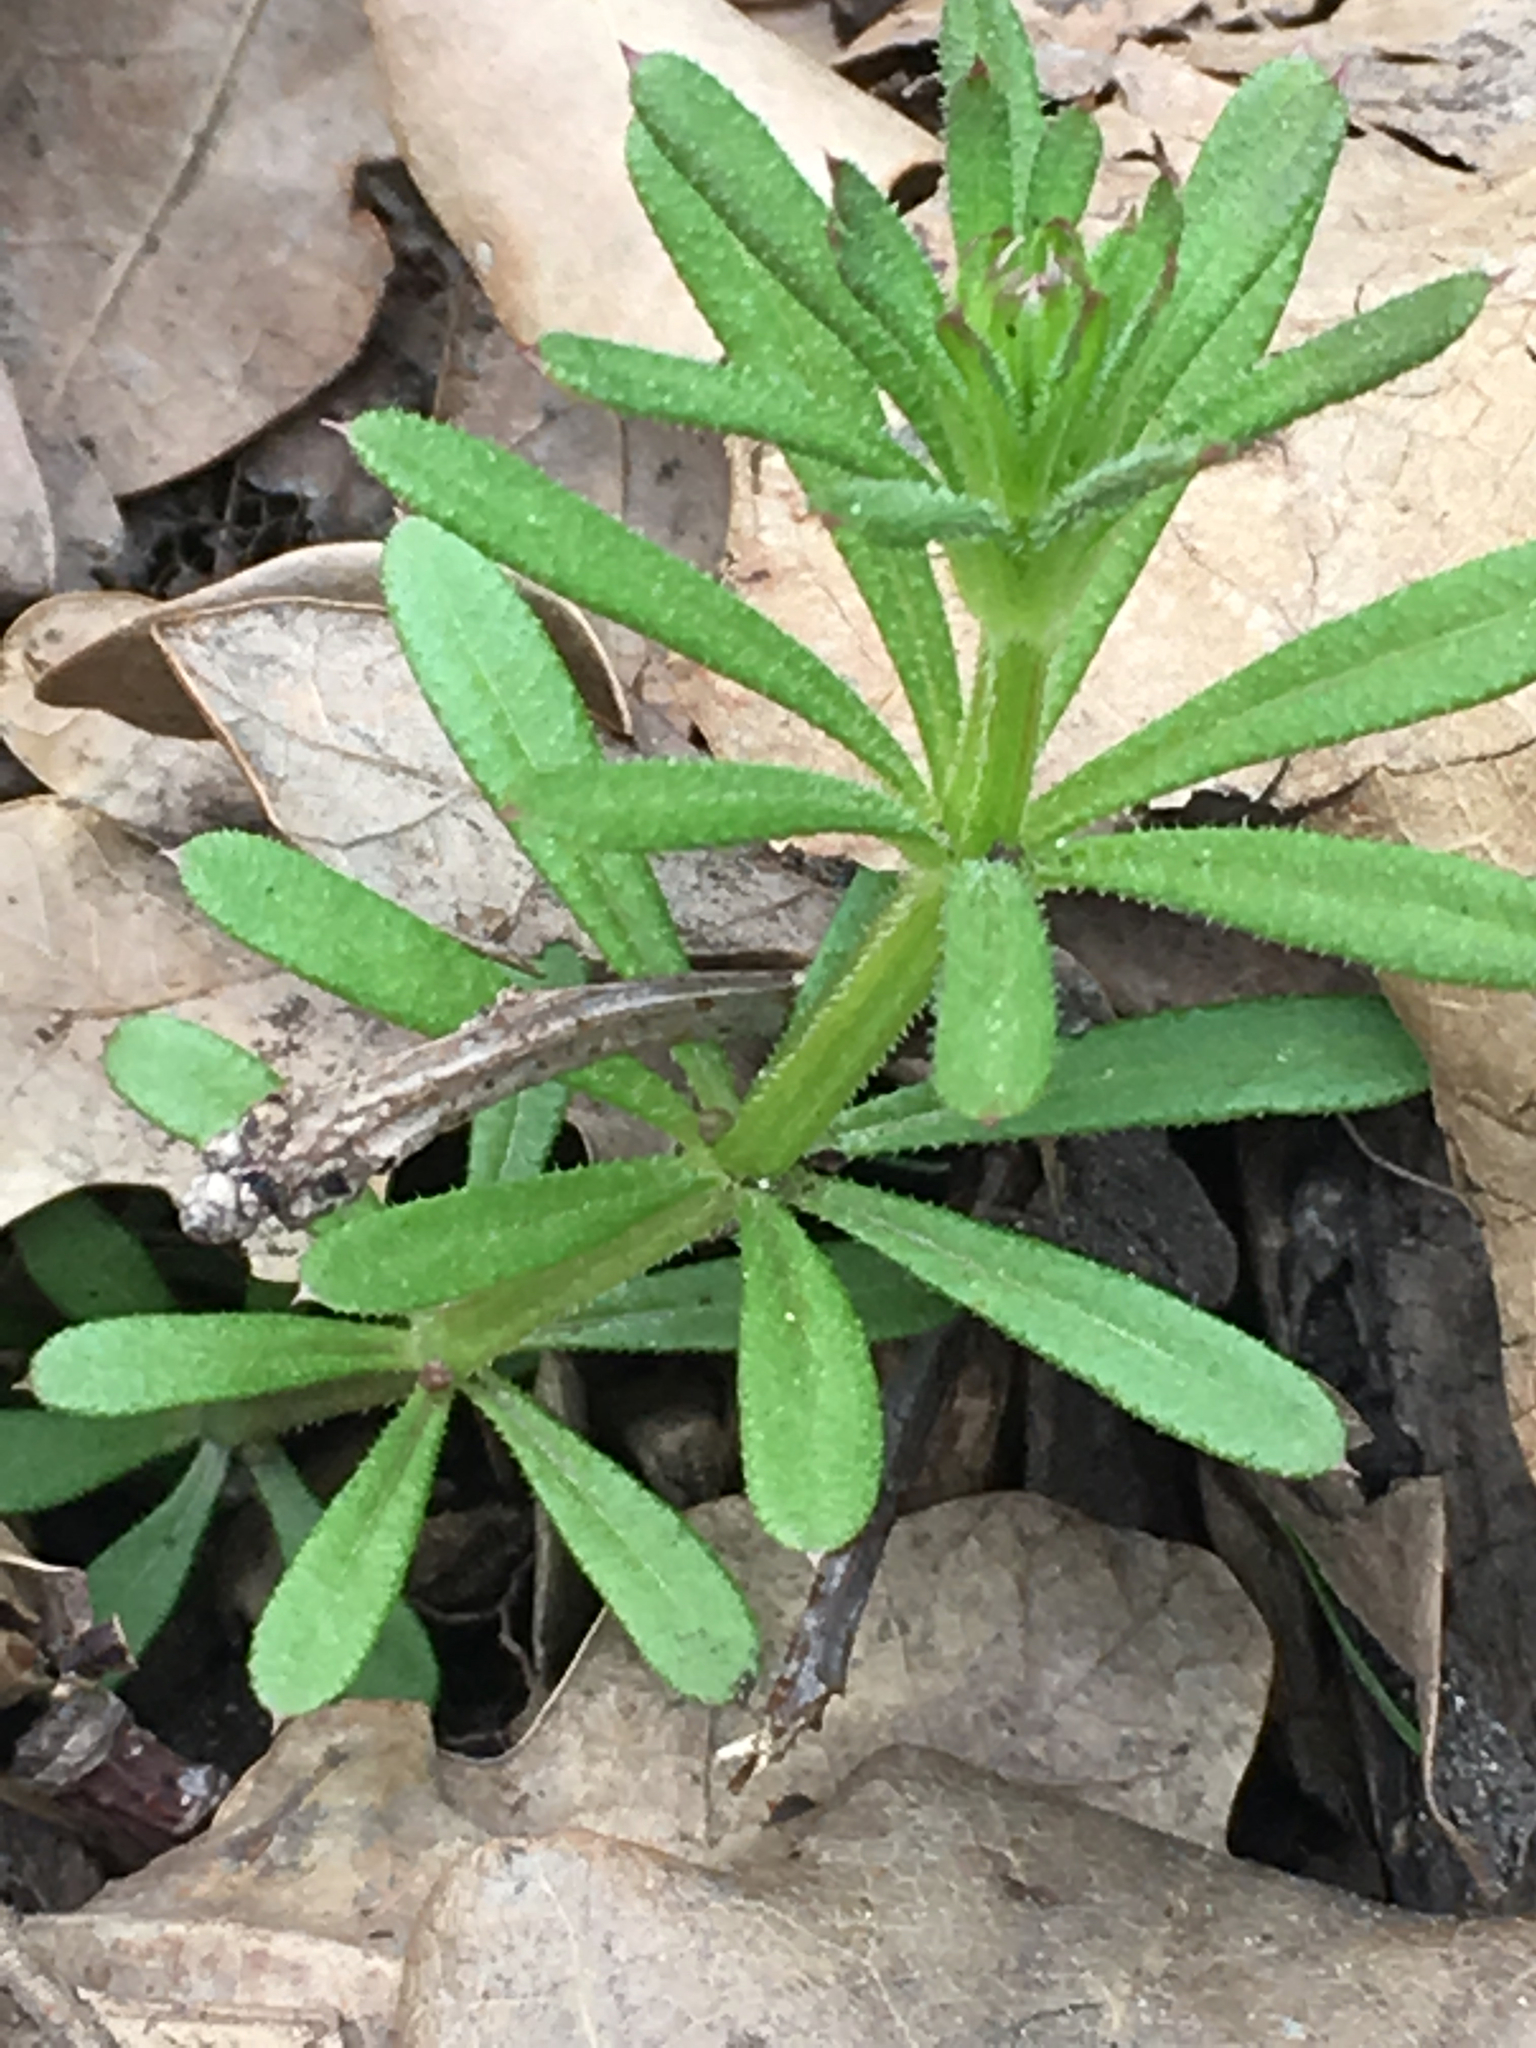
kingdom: Plantae
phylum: Tracheophyta
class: Magnoliopsida
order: Gentianales
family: Rubiaceae
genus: Galium
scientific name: Galium aparine
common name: Cleavers
